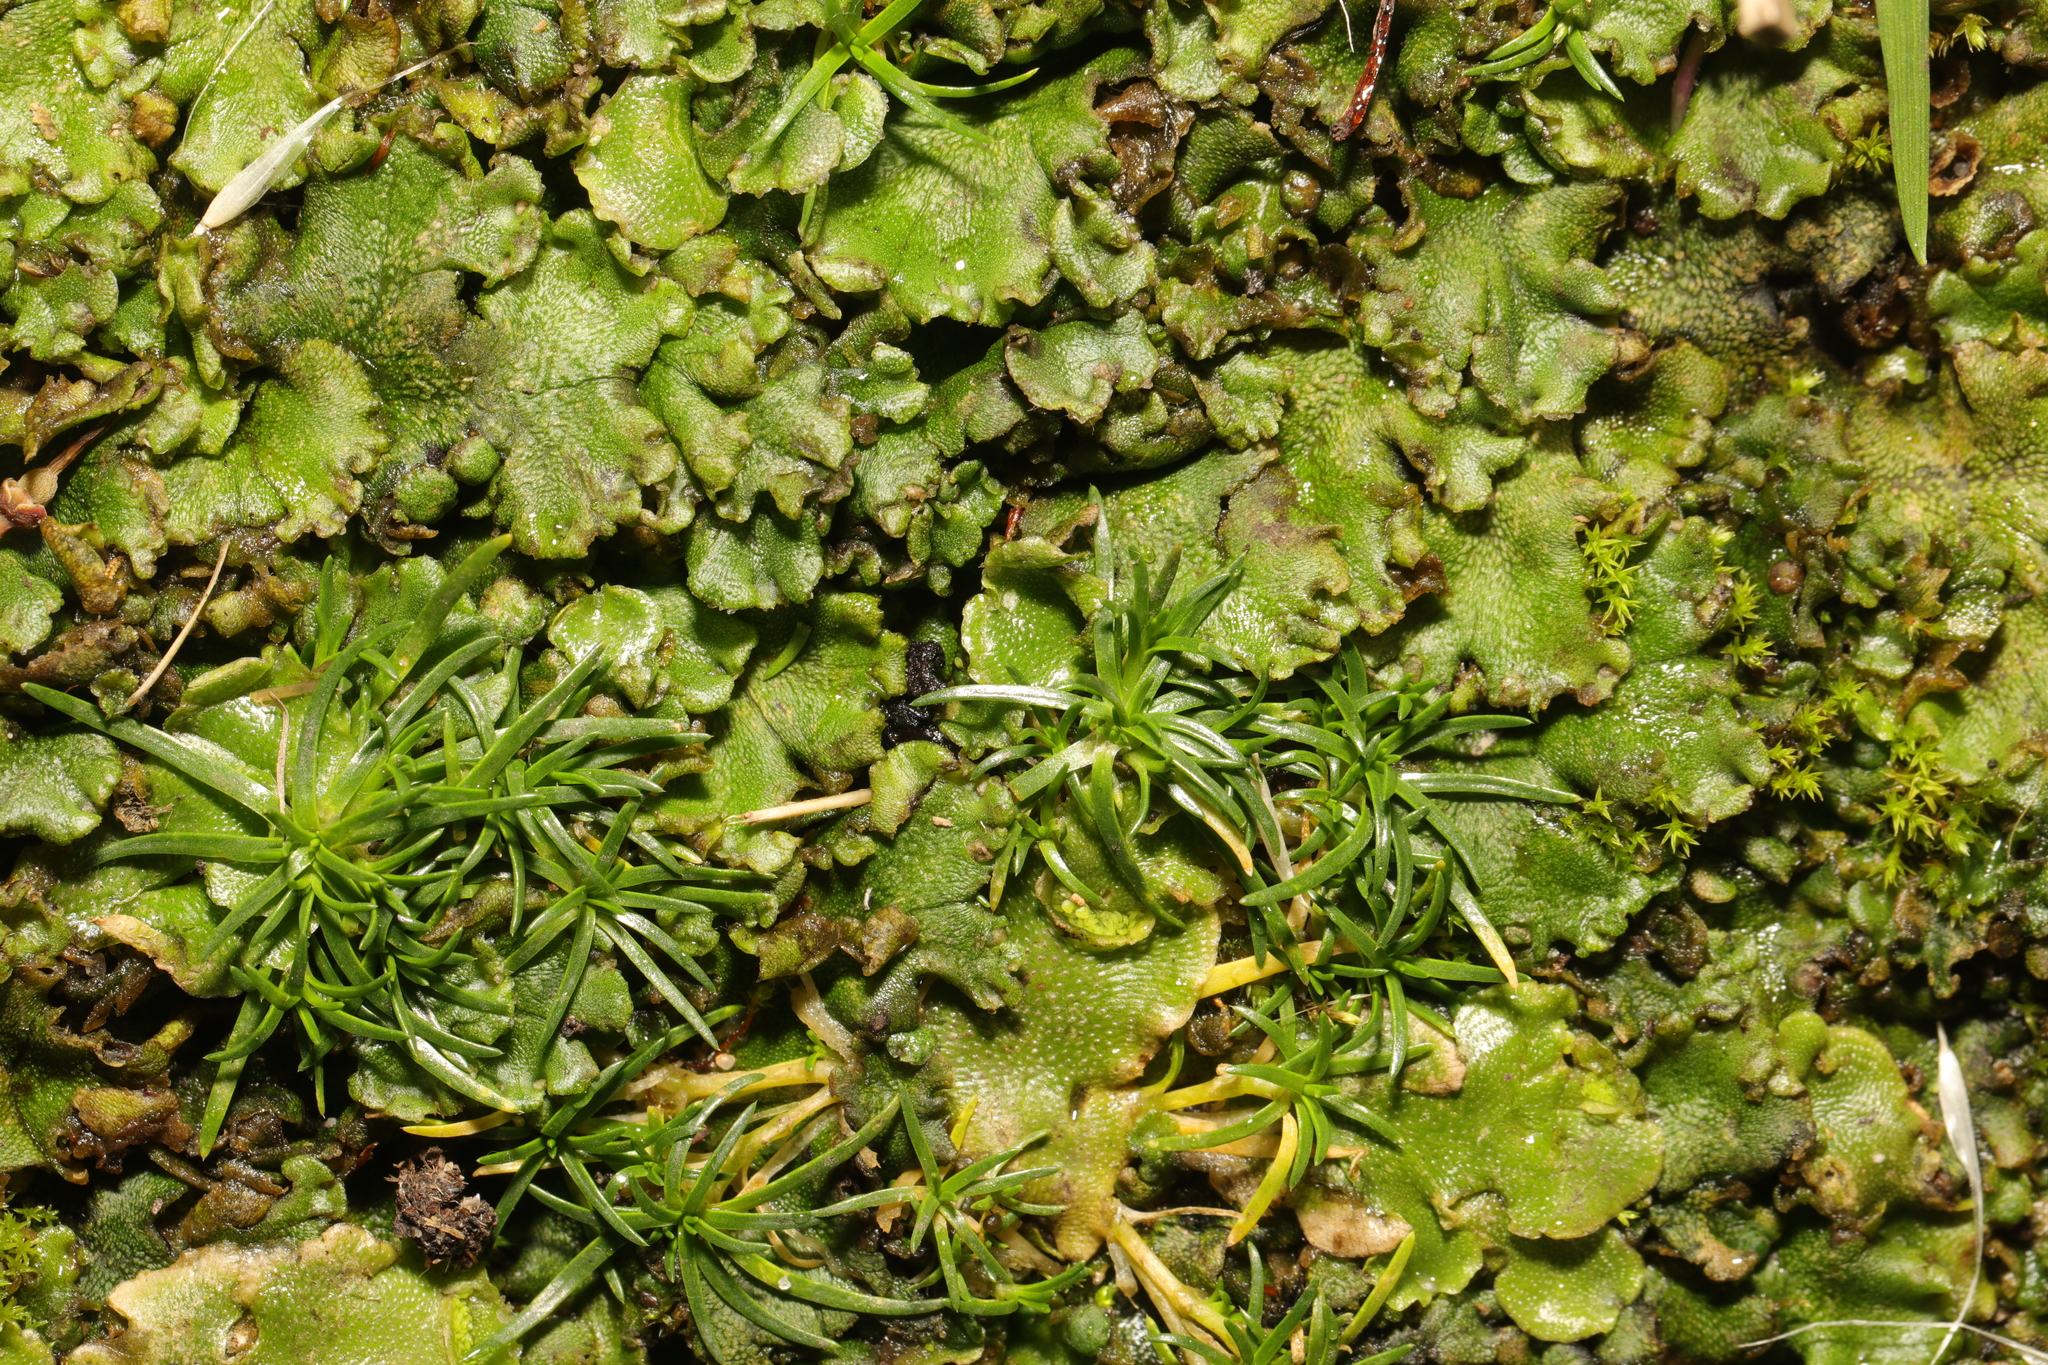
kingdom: Plantae
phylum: Marchantiophyta
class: Marchantiopsida
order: Marchantiales
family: Marchantiaceae
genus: Marchantia
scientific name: Marchantia polymorpha
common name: Common liverwort
